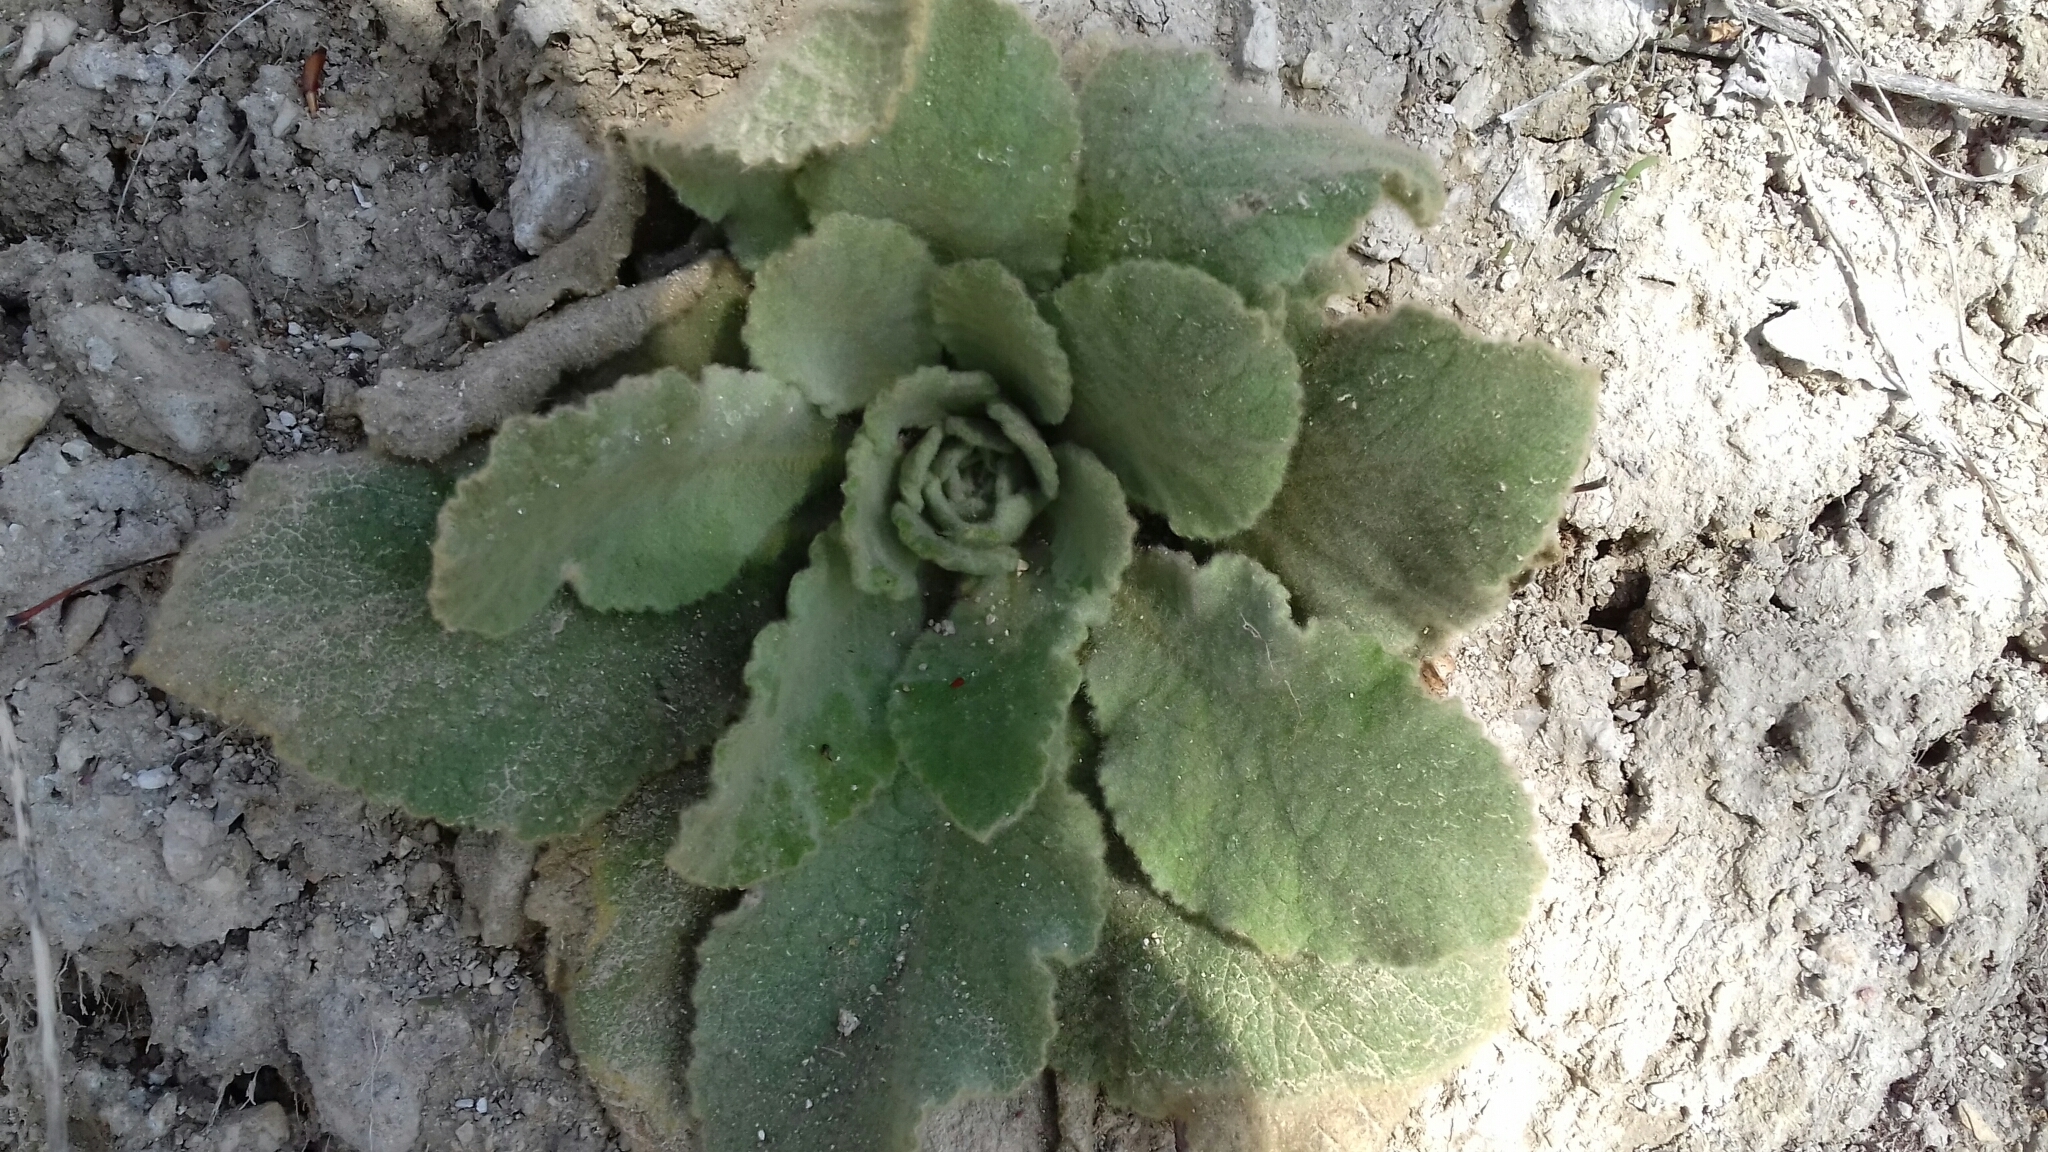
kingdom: Plantae
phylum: Tracheophyta
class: Magnoliopsida
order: Lamiales
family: Scrophulariaceae
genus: Verbascum
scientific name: Verbascum thapsus
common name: Common mullein
